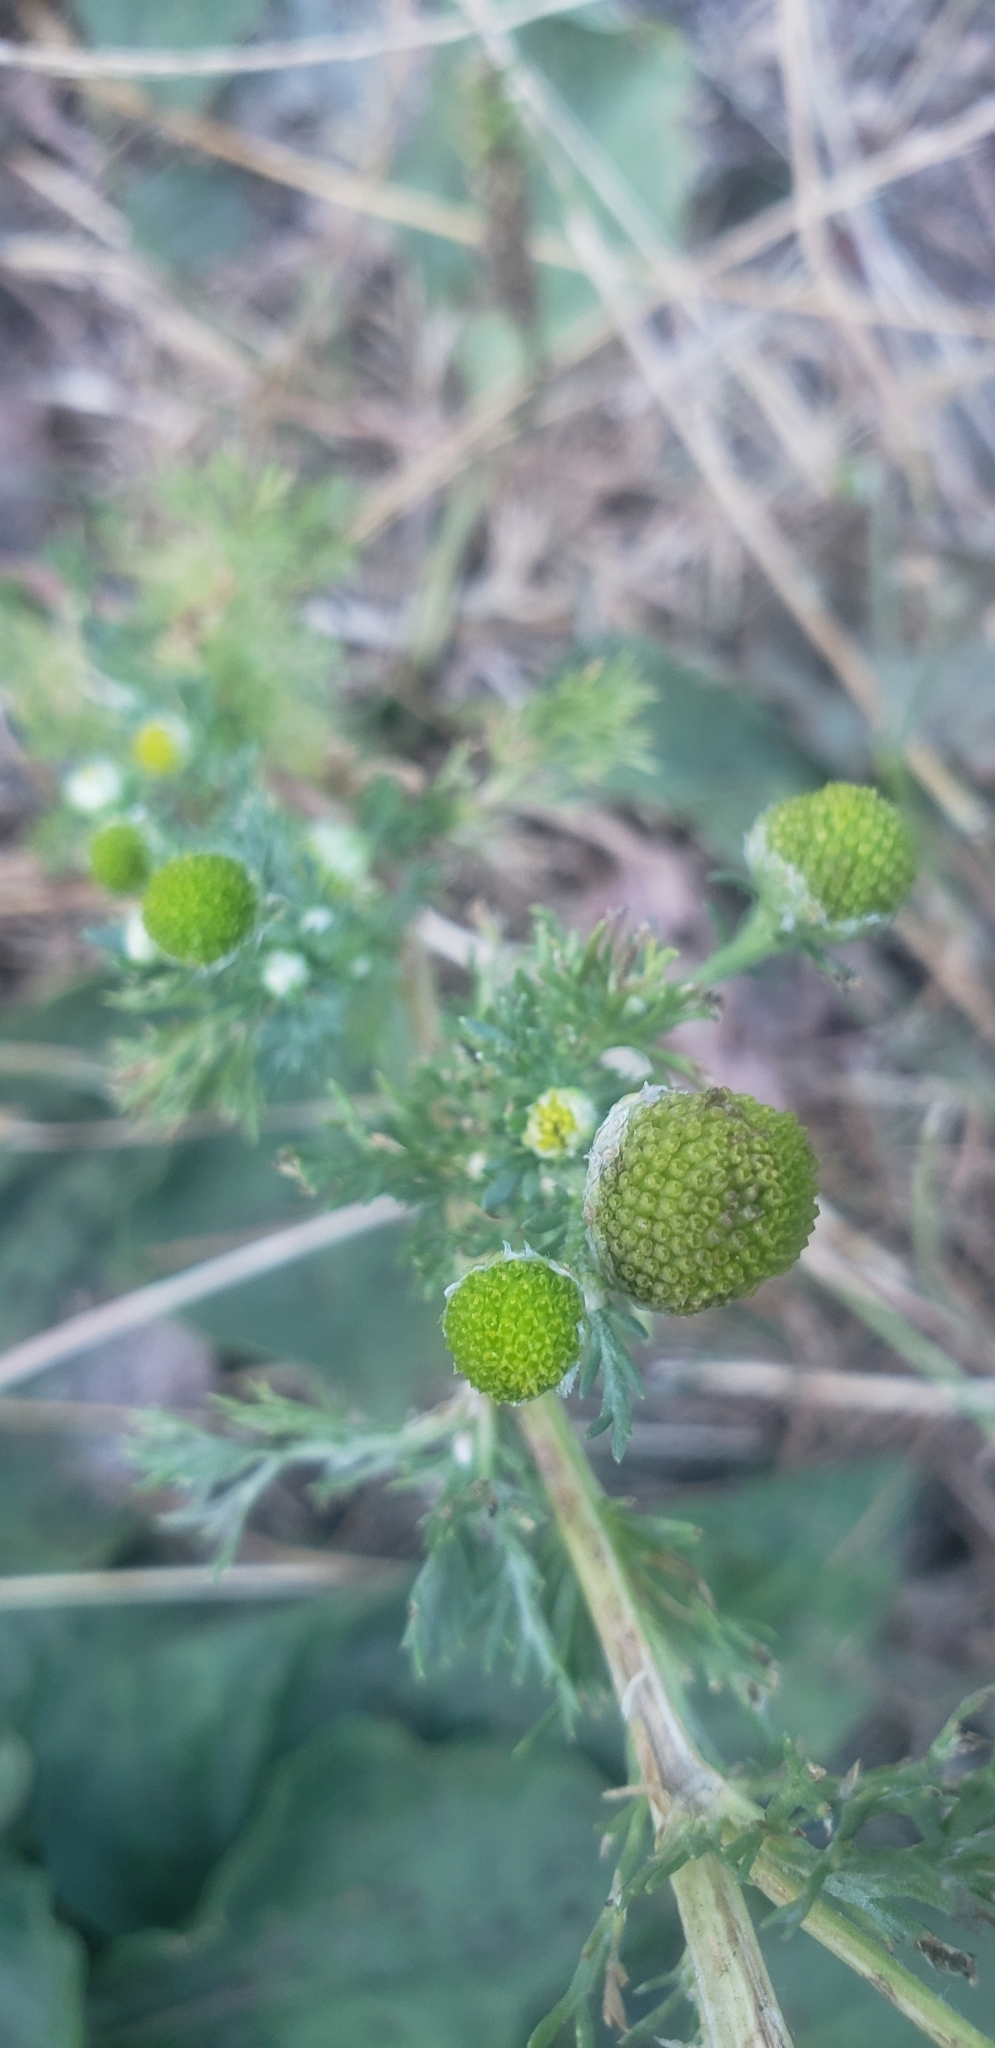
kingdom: Plantae
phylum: Tracheophyta
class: Magnoliopsida
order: Asterales
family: Asteraceae
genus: Matricaria
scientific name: Matricaria discoidea
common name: Disc mayweed
